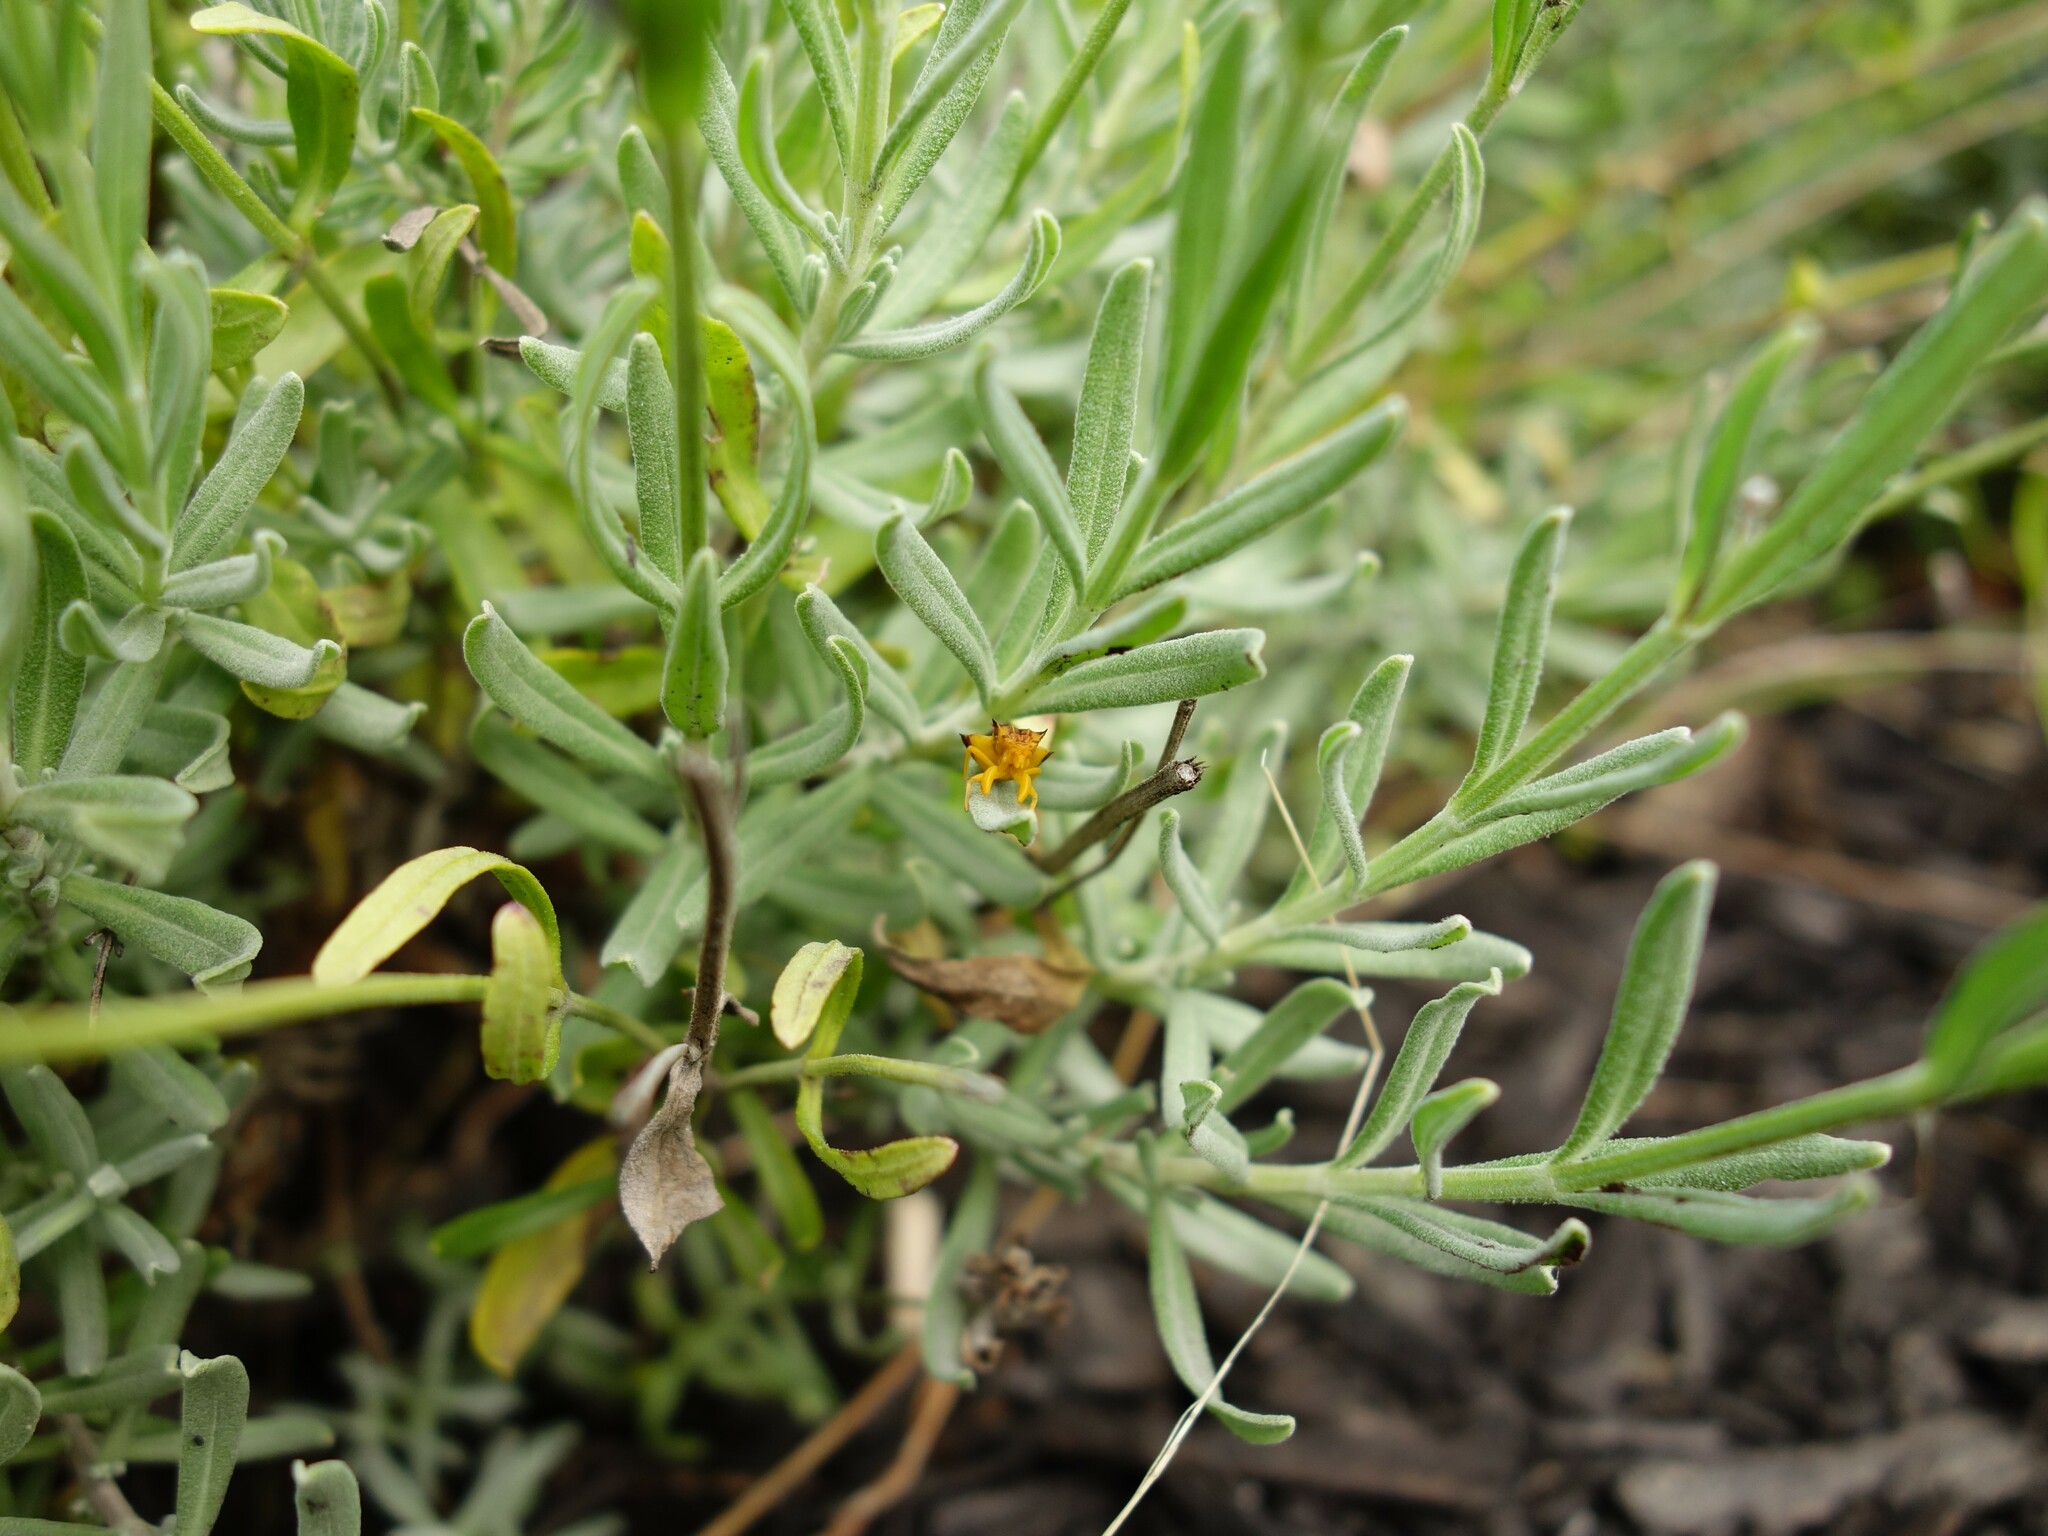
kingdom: Animalia
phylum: Arthropoda
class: Insecta
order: Hemiptera
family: Reduviidae
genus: Phymata
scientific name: Phymata americana
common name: Jagged ambush bug
